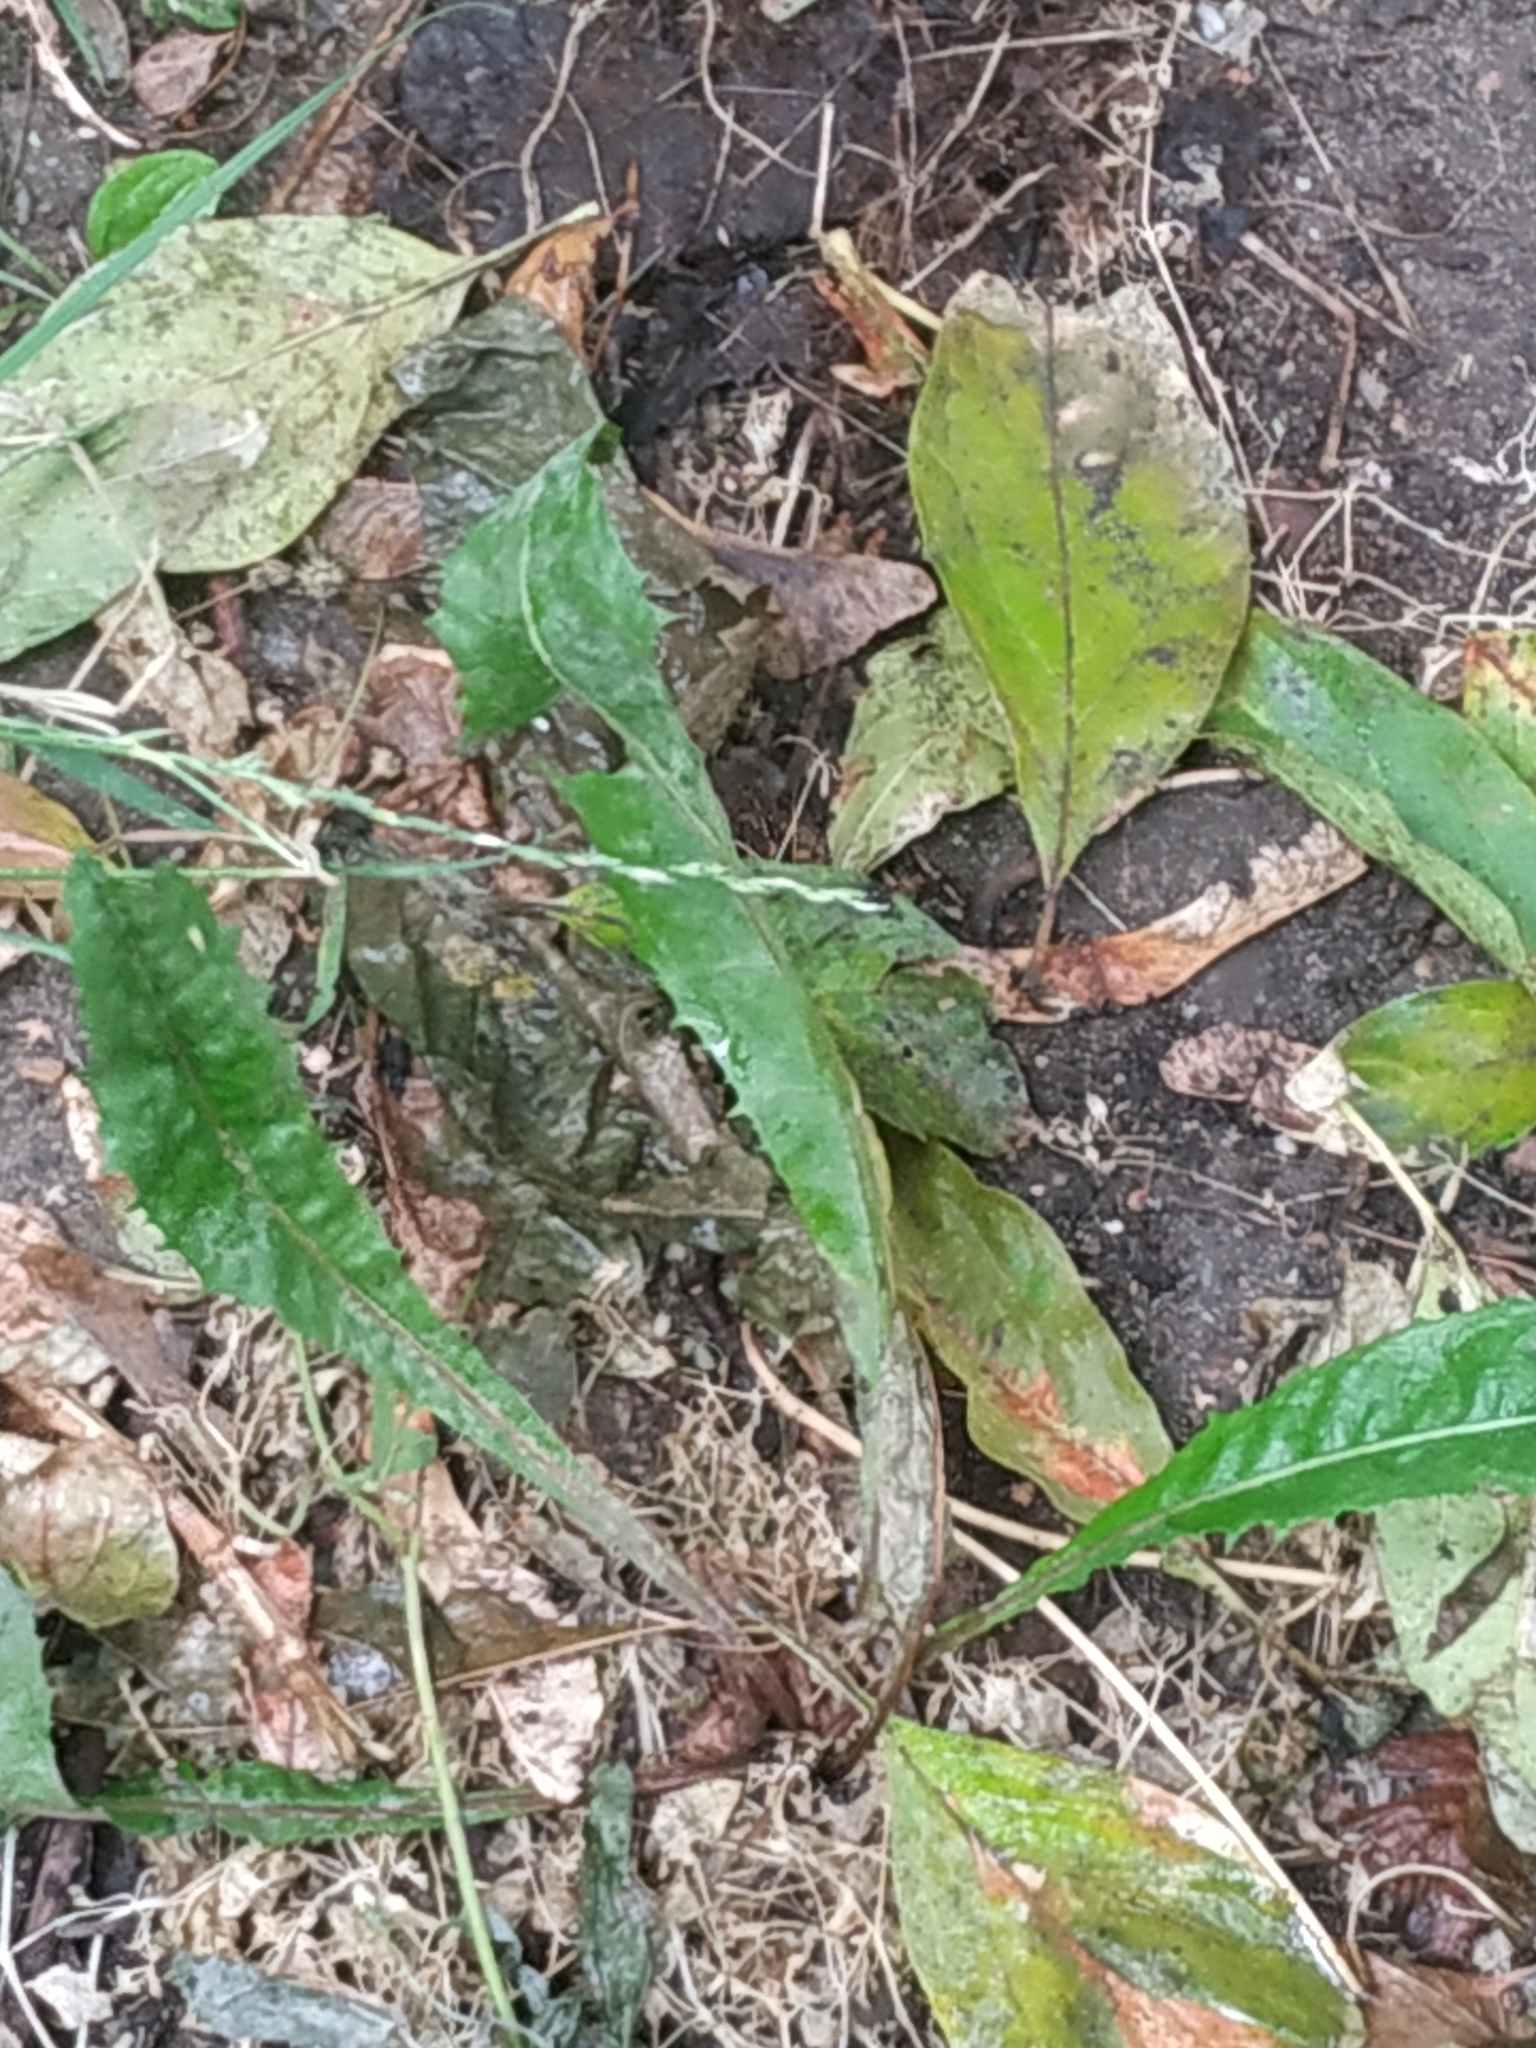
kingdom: Plantae
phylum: Tracheophyta
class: Magnoliopsida
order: Asterales
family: Asteraceae
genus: Taraxacum
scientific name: Taraxacum officinale
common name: Common dandelion
